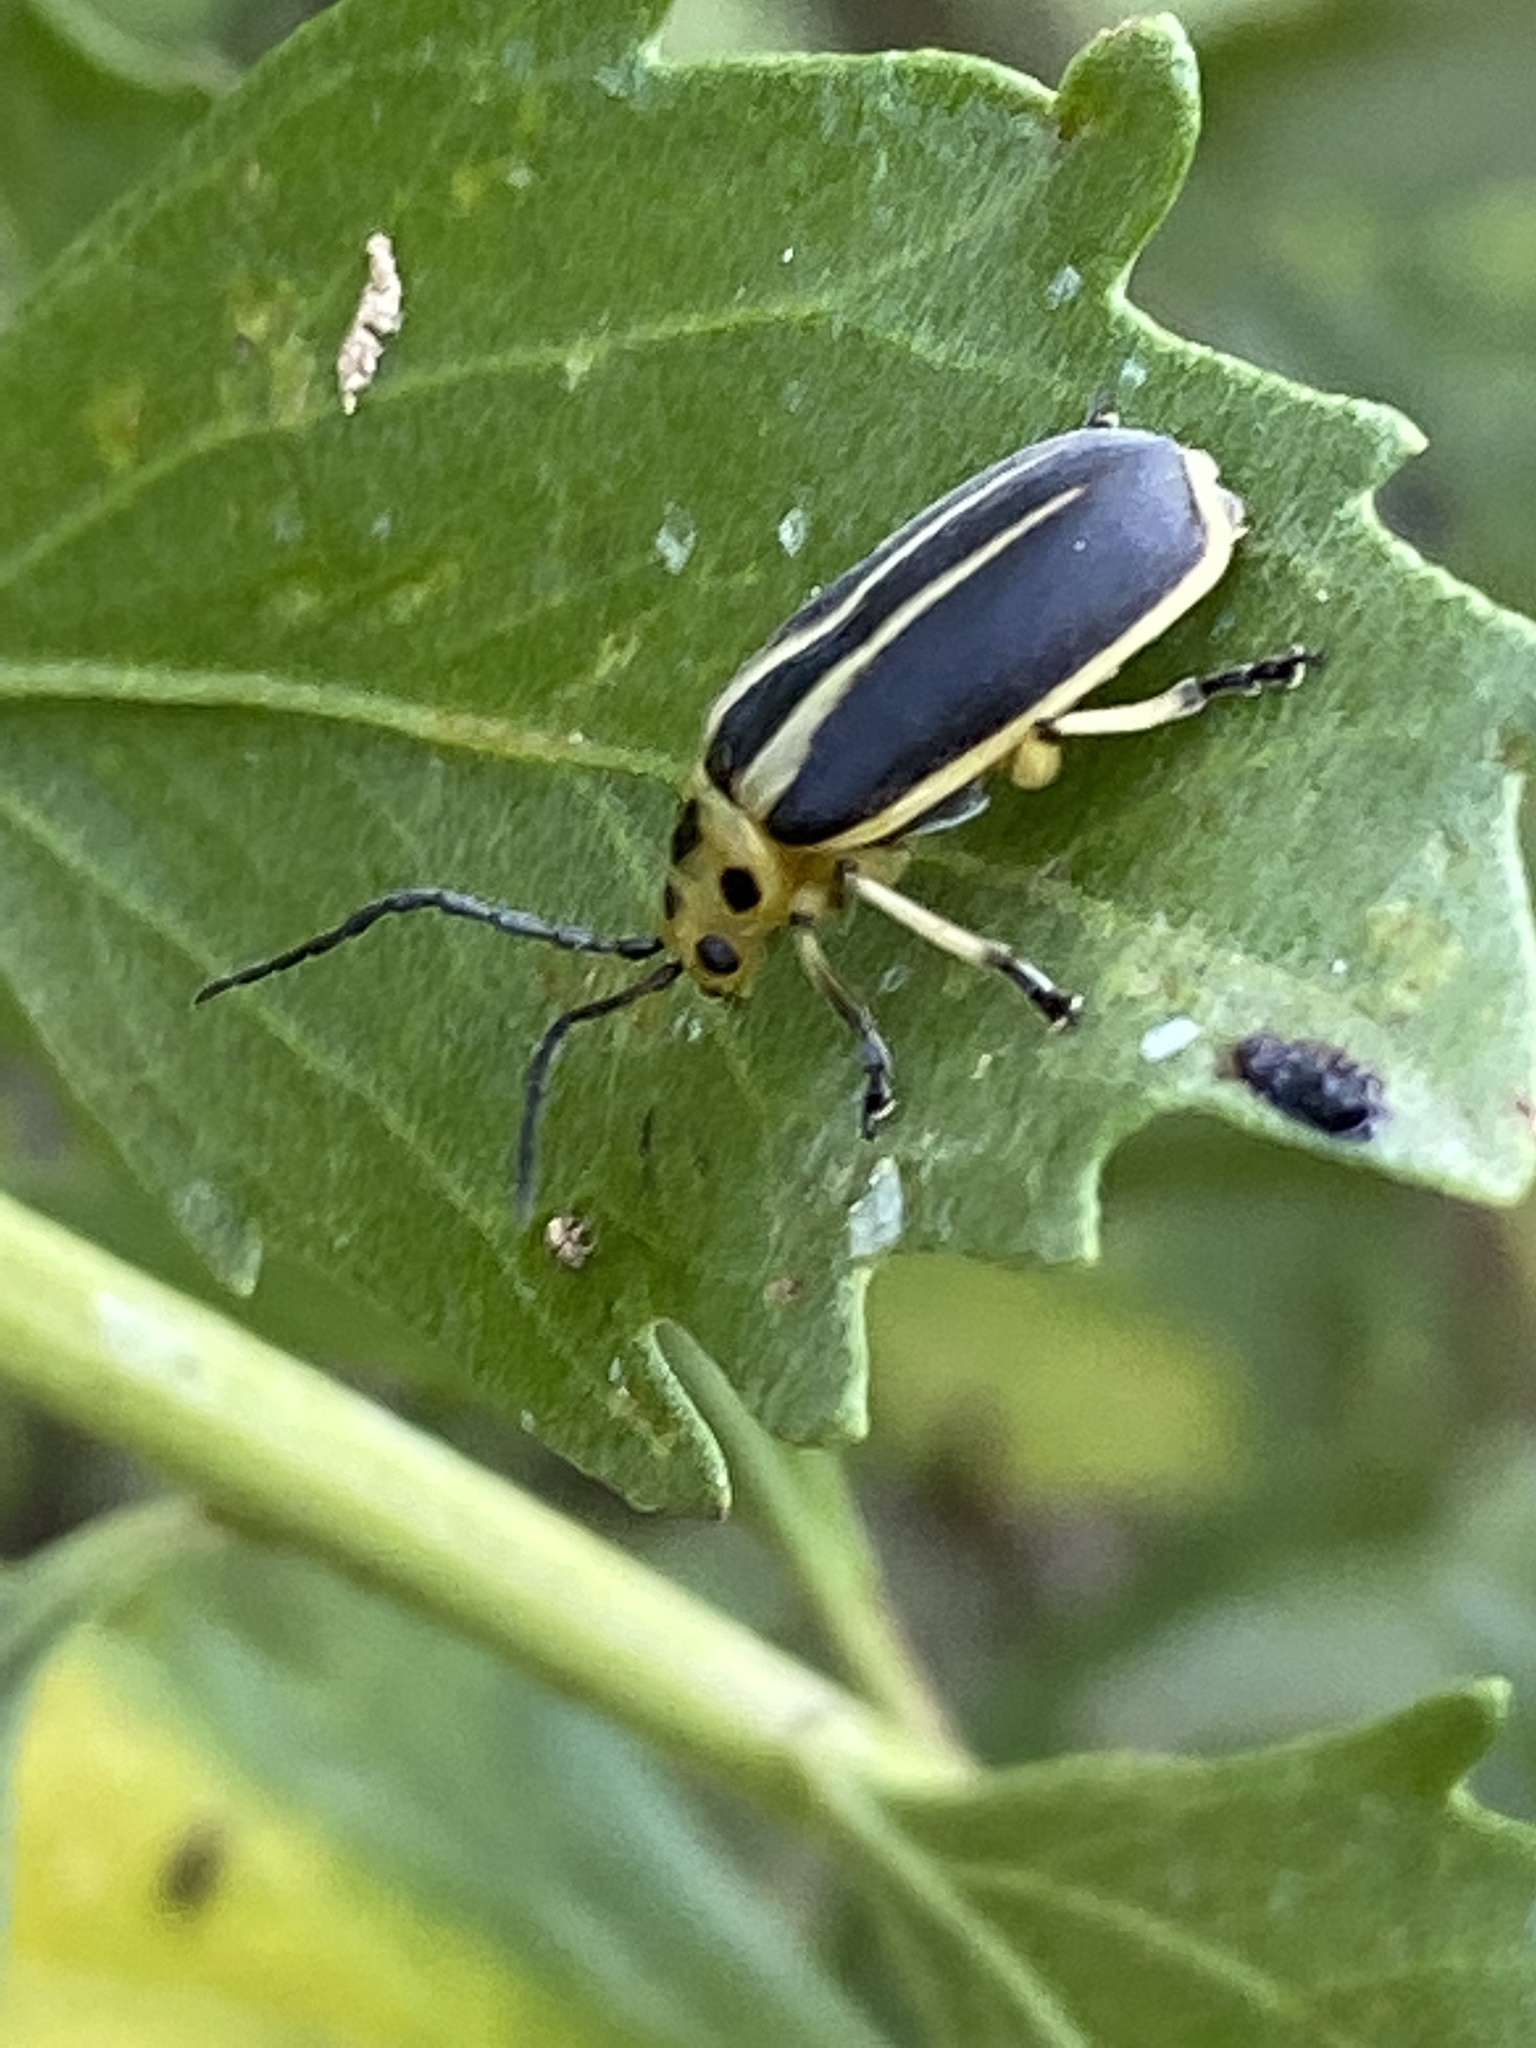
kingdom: Animalia
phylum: Arthropoda
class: Insecta
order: Coleoptera
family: Chrysomelidae
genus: Trirhabda
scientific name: Trirhabda bacharidis
